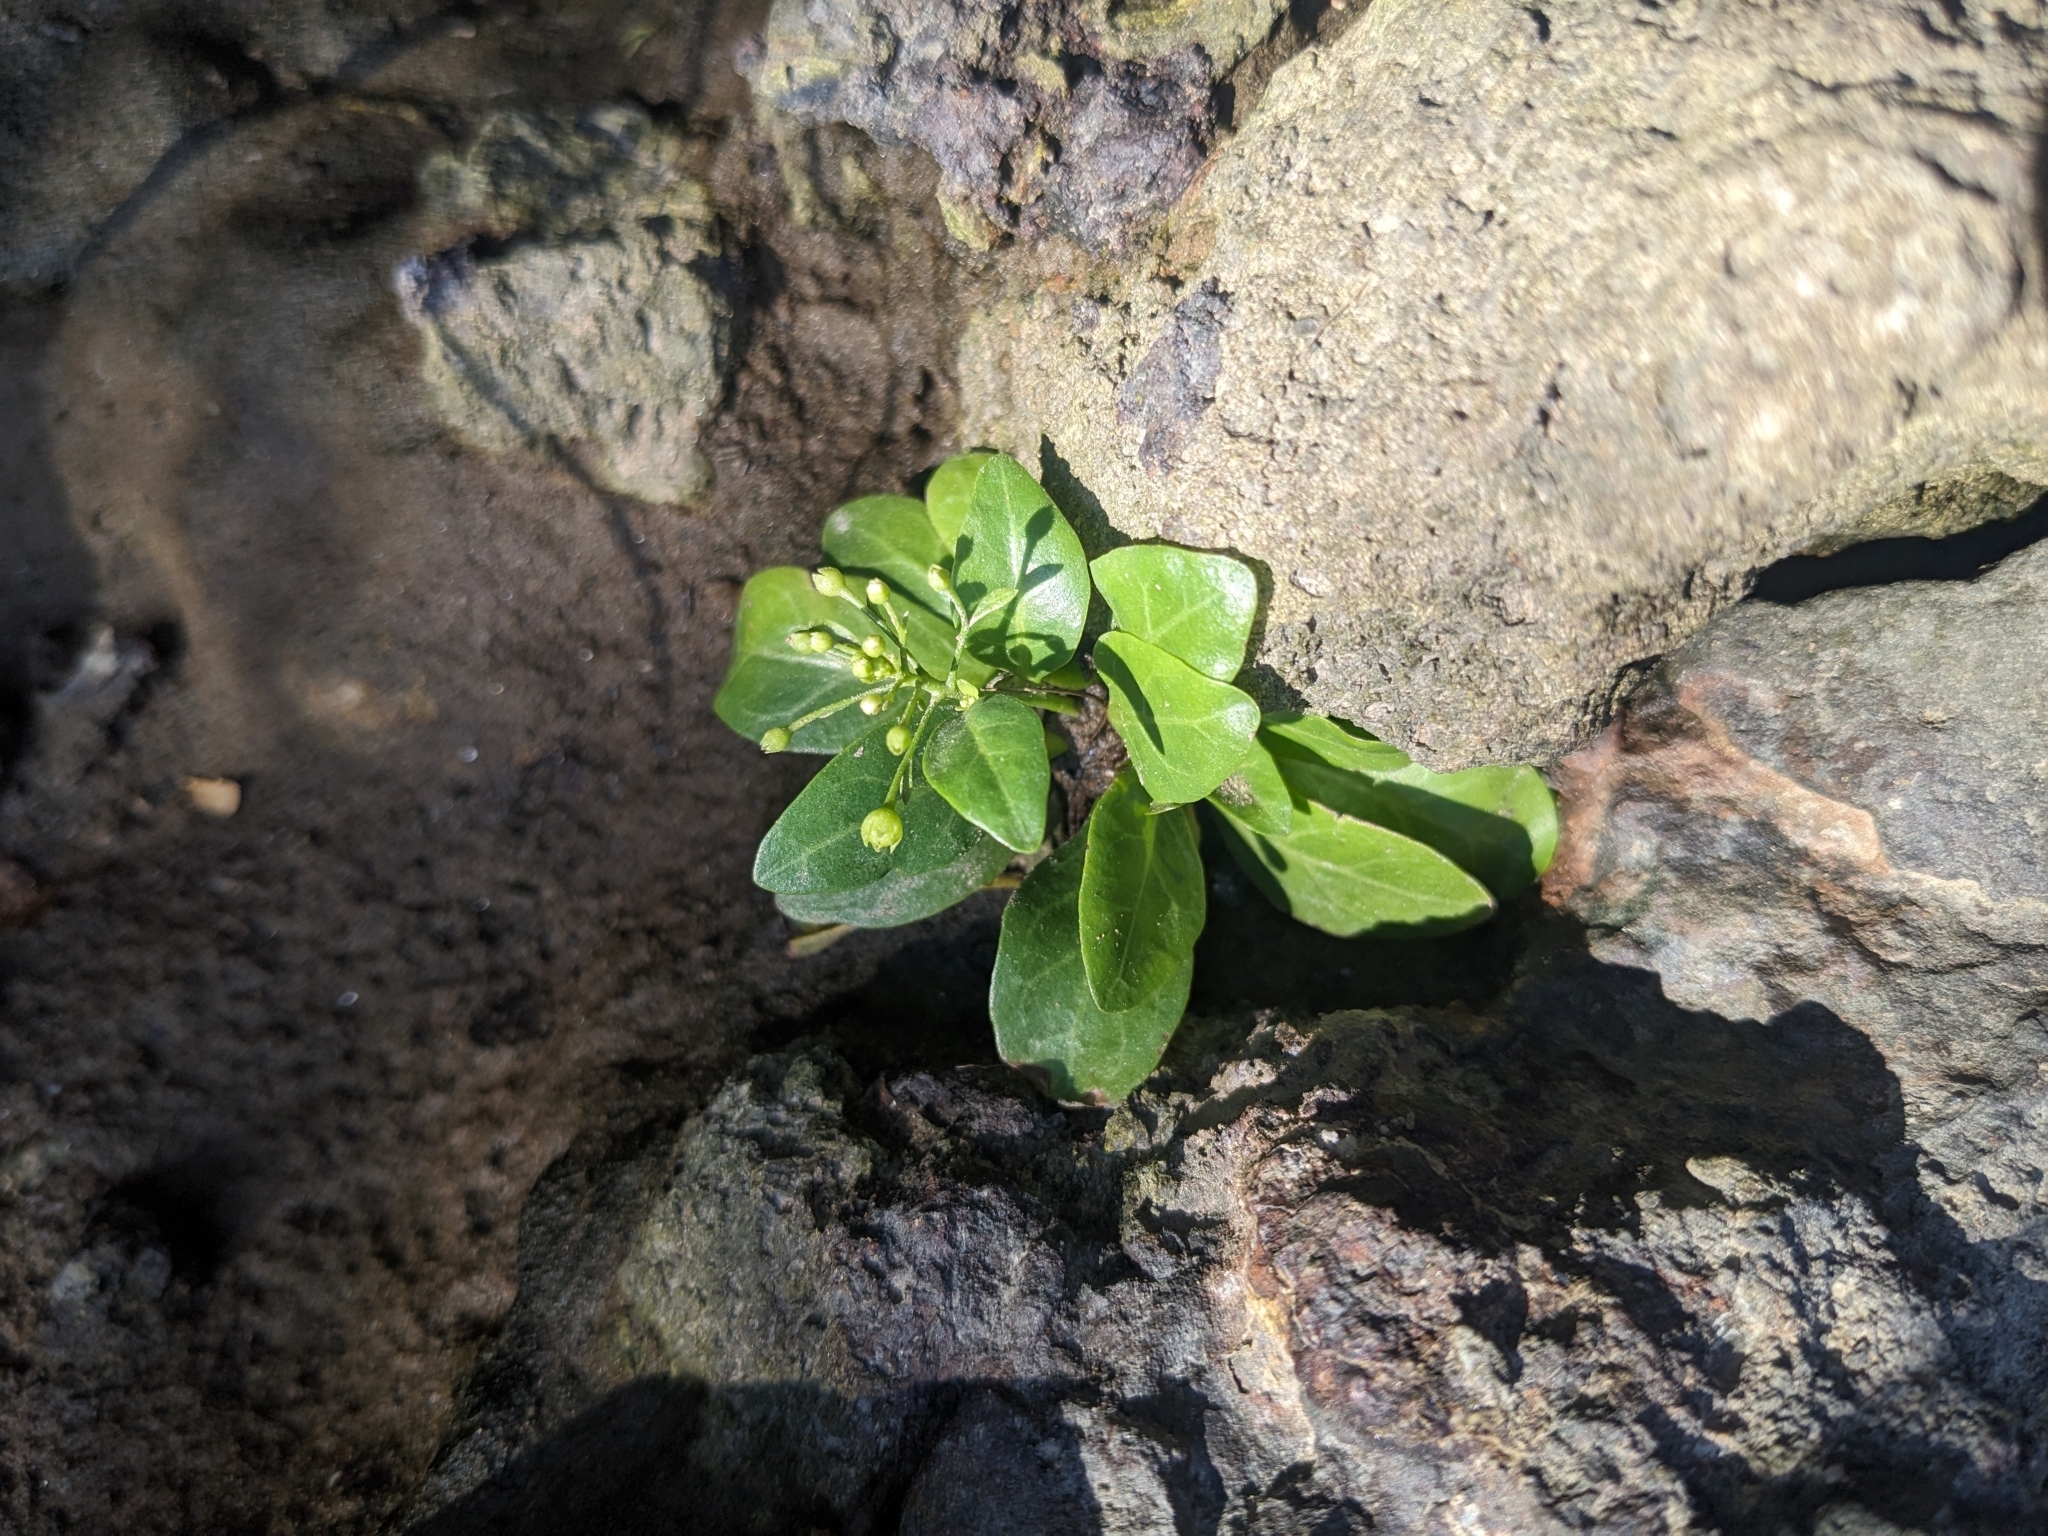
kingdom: Plantae
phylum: Tracheophyta
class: Magnoliopsida
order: Ericales
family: Primulaceae
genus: Samolus
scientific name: Samolus parviflorus
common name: False water pimpernel
